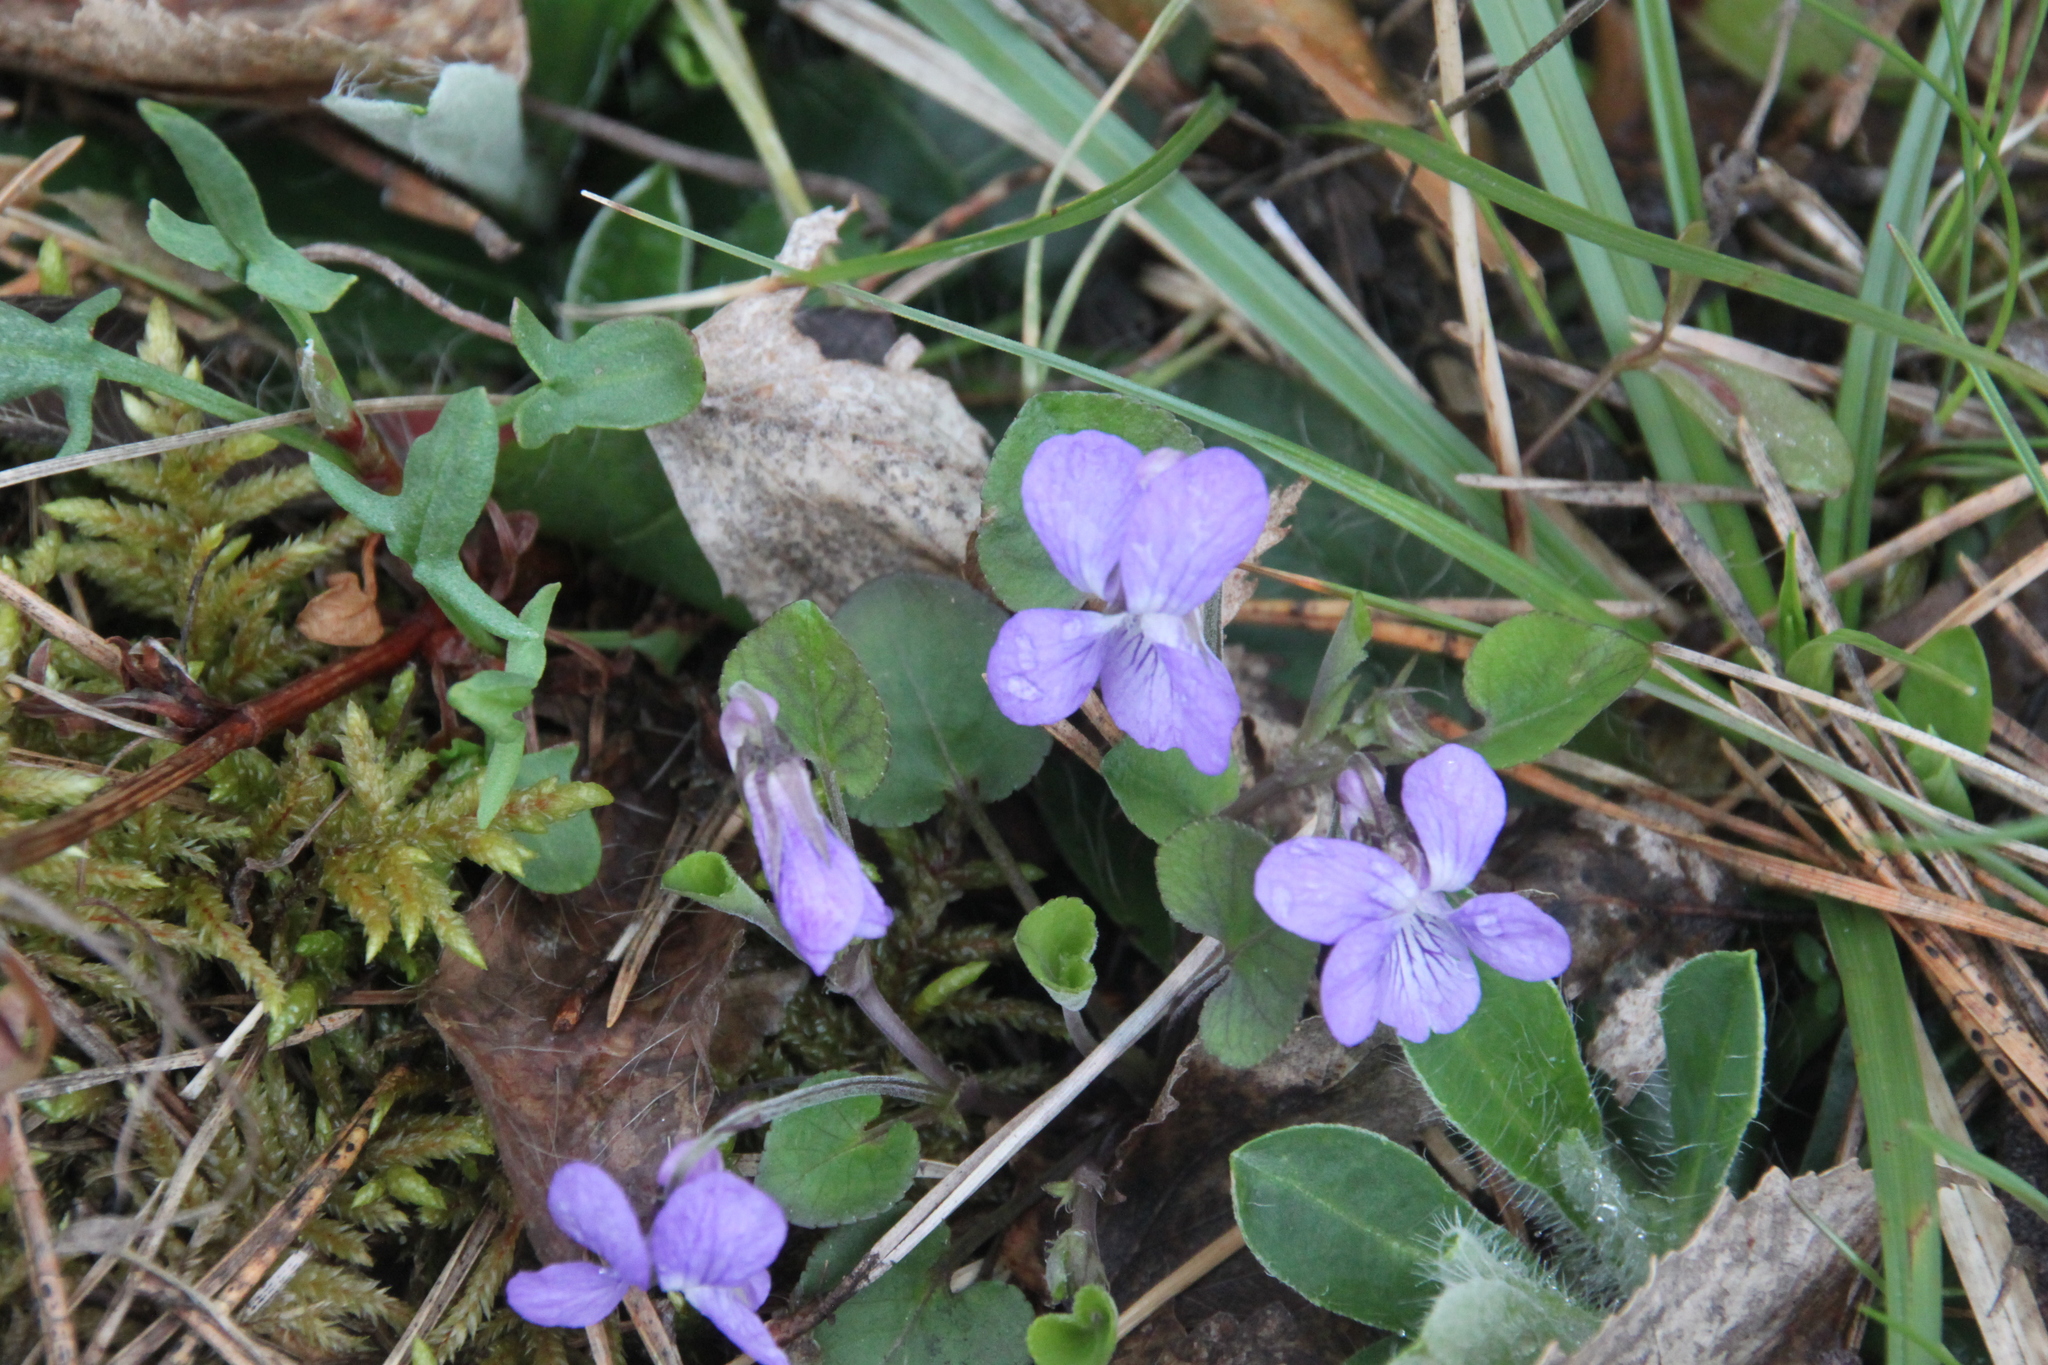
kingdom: Plantae
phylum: Tracheophyta
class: Magnoliopsida
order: Malpighiales
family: Violaceae
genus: Viola
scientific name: Viola rupestris
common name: Teesdale violet
